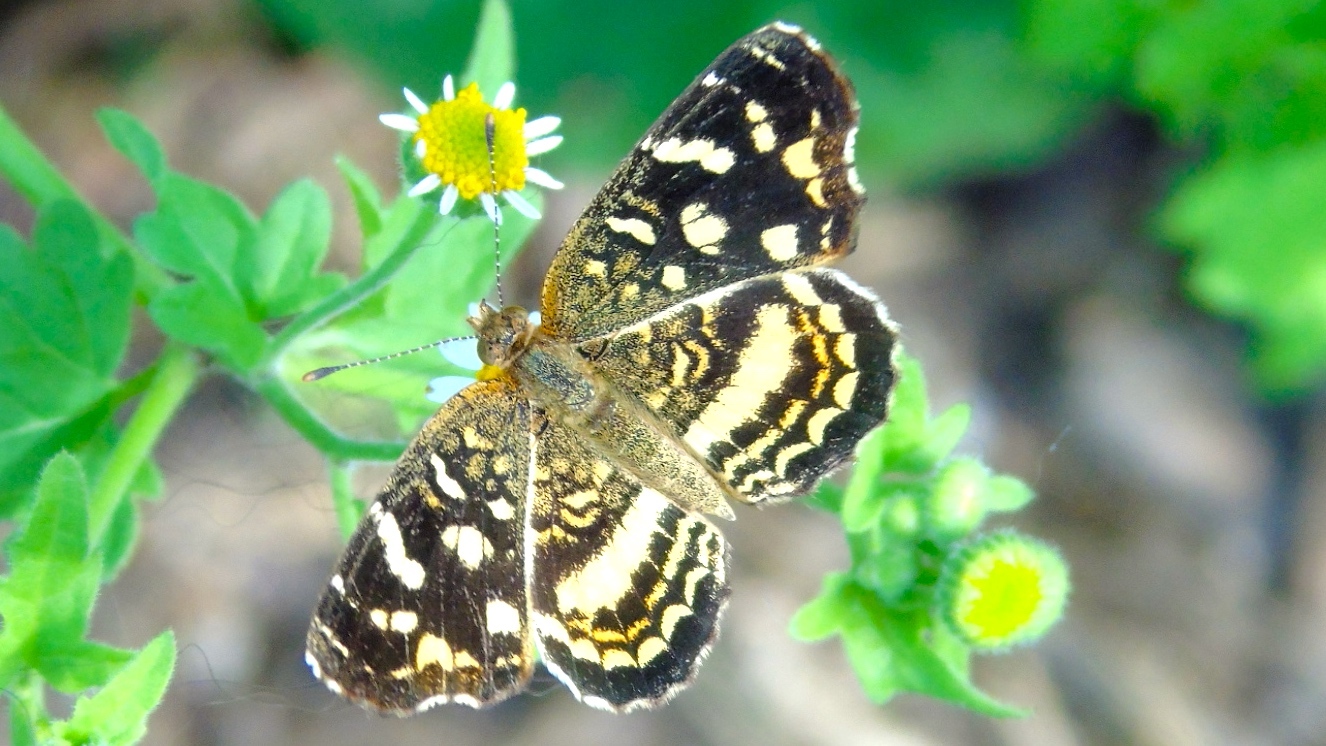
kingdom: Animalia
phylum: Arthropoda
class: Insecta
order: Lepidoptera
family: Nymphalidae
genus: Anthanassa
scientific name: Anthanassa tulcis
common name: Pale-banded crescent
